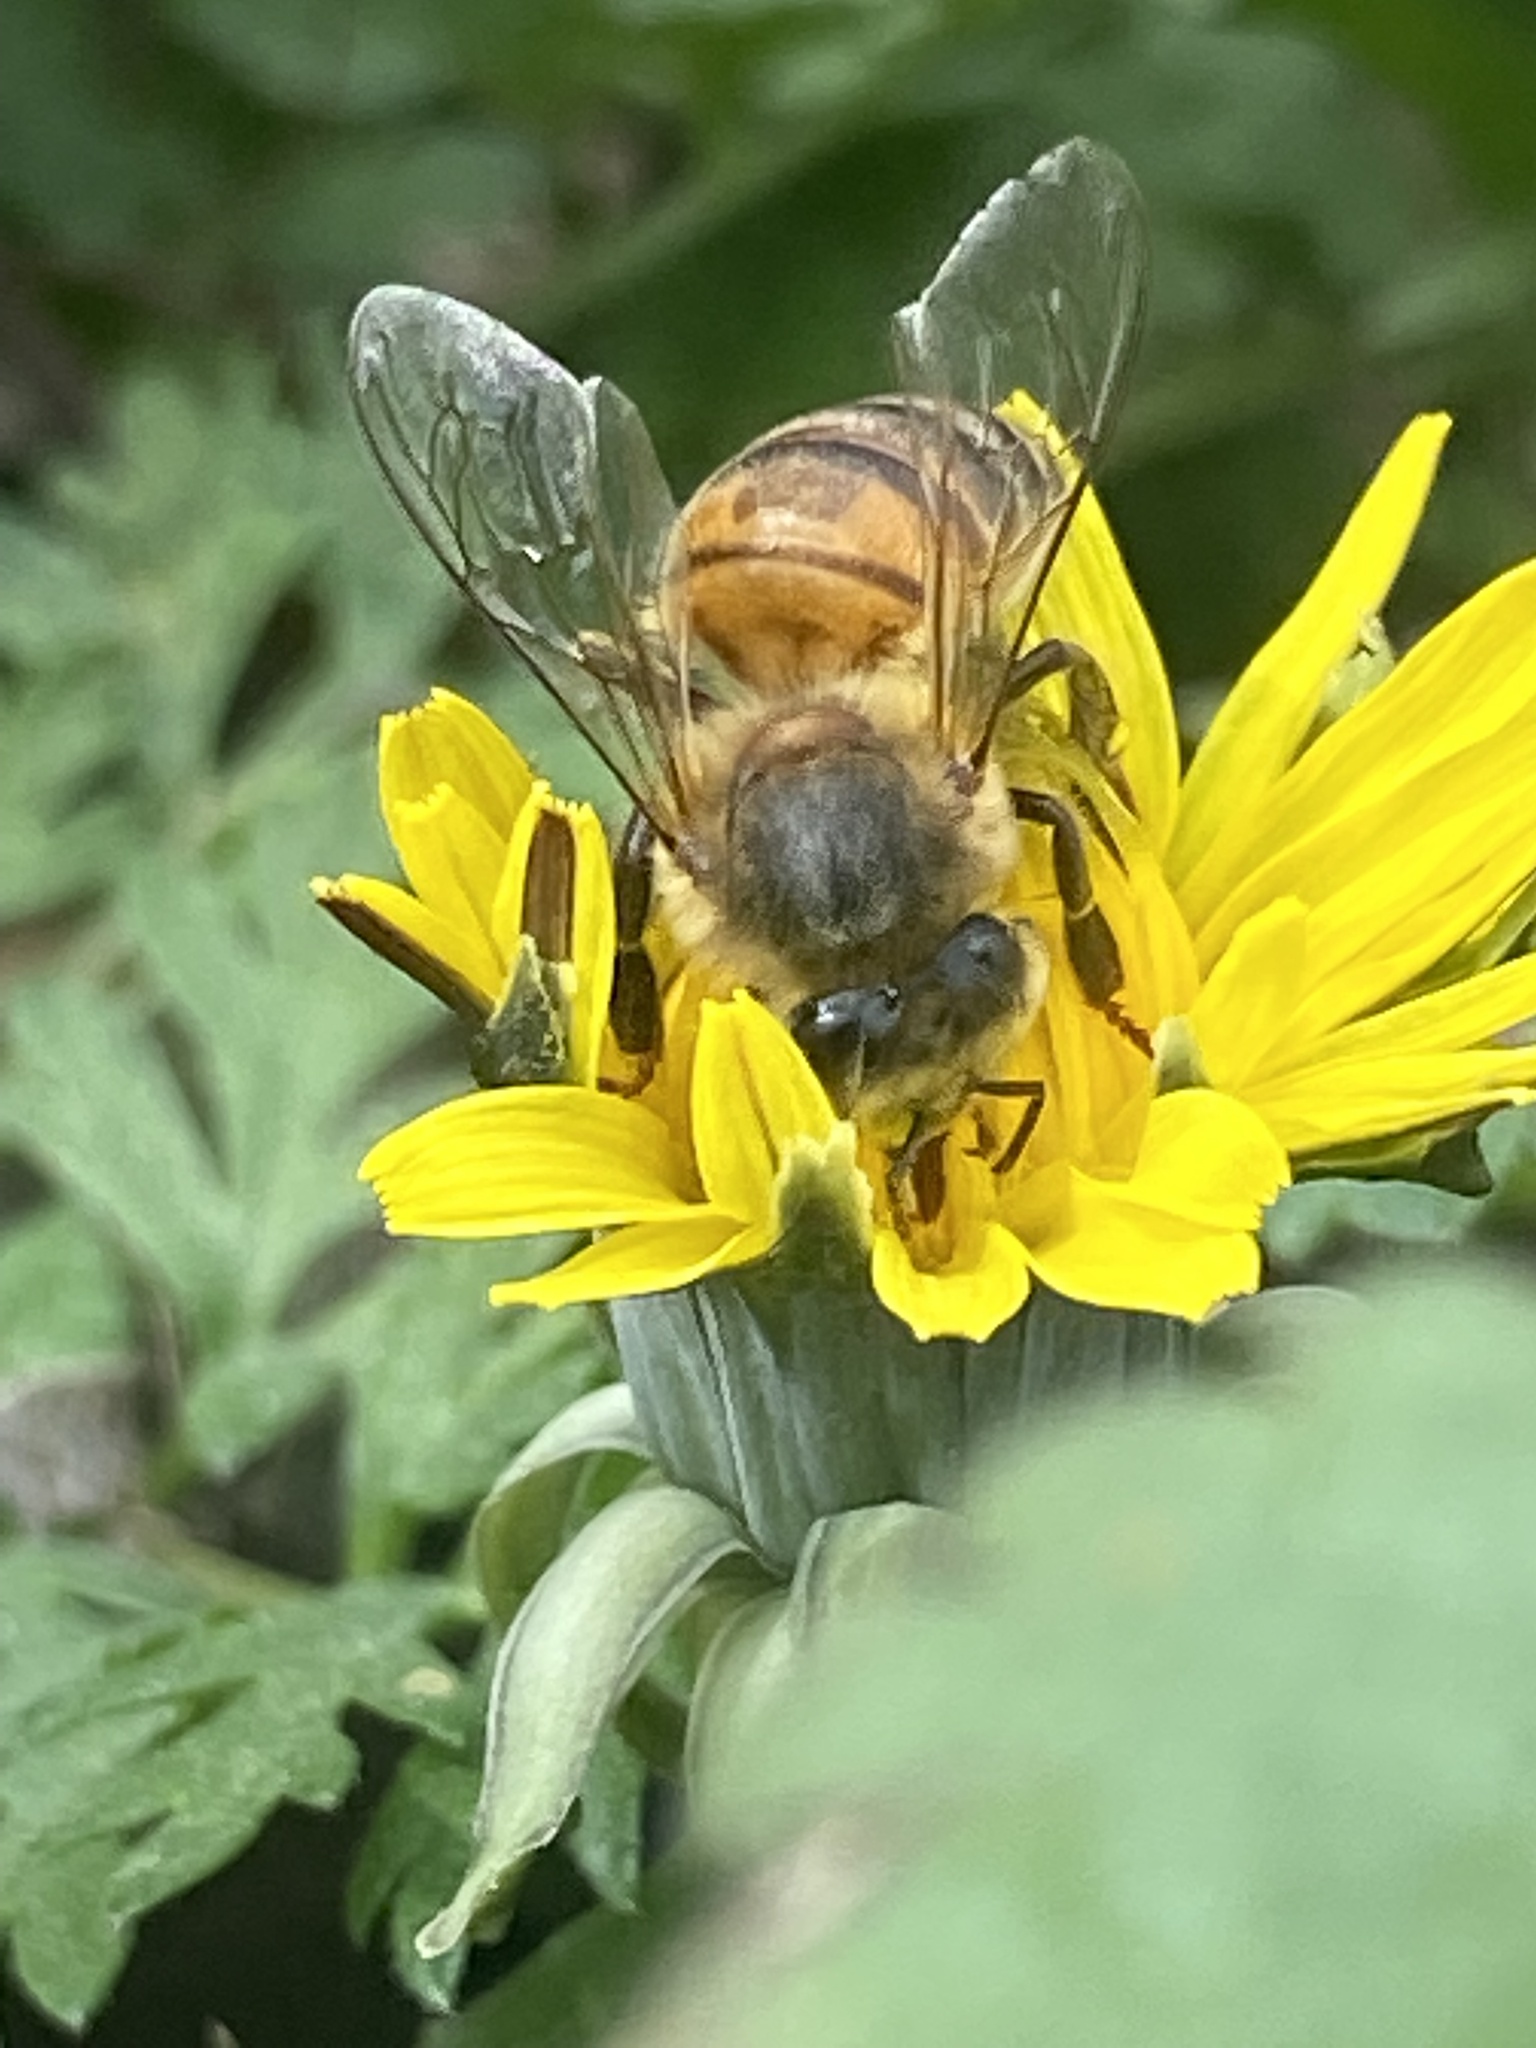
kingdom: Animalia
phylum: Arthropoda
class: Insecta
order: Hymenoptera
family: Apidae
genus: Apis
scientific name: Apis mellifera
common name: Honey bee
